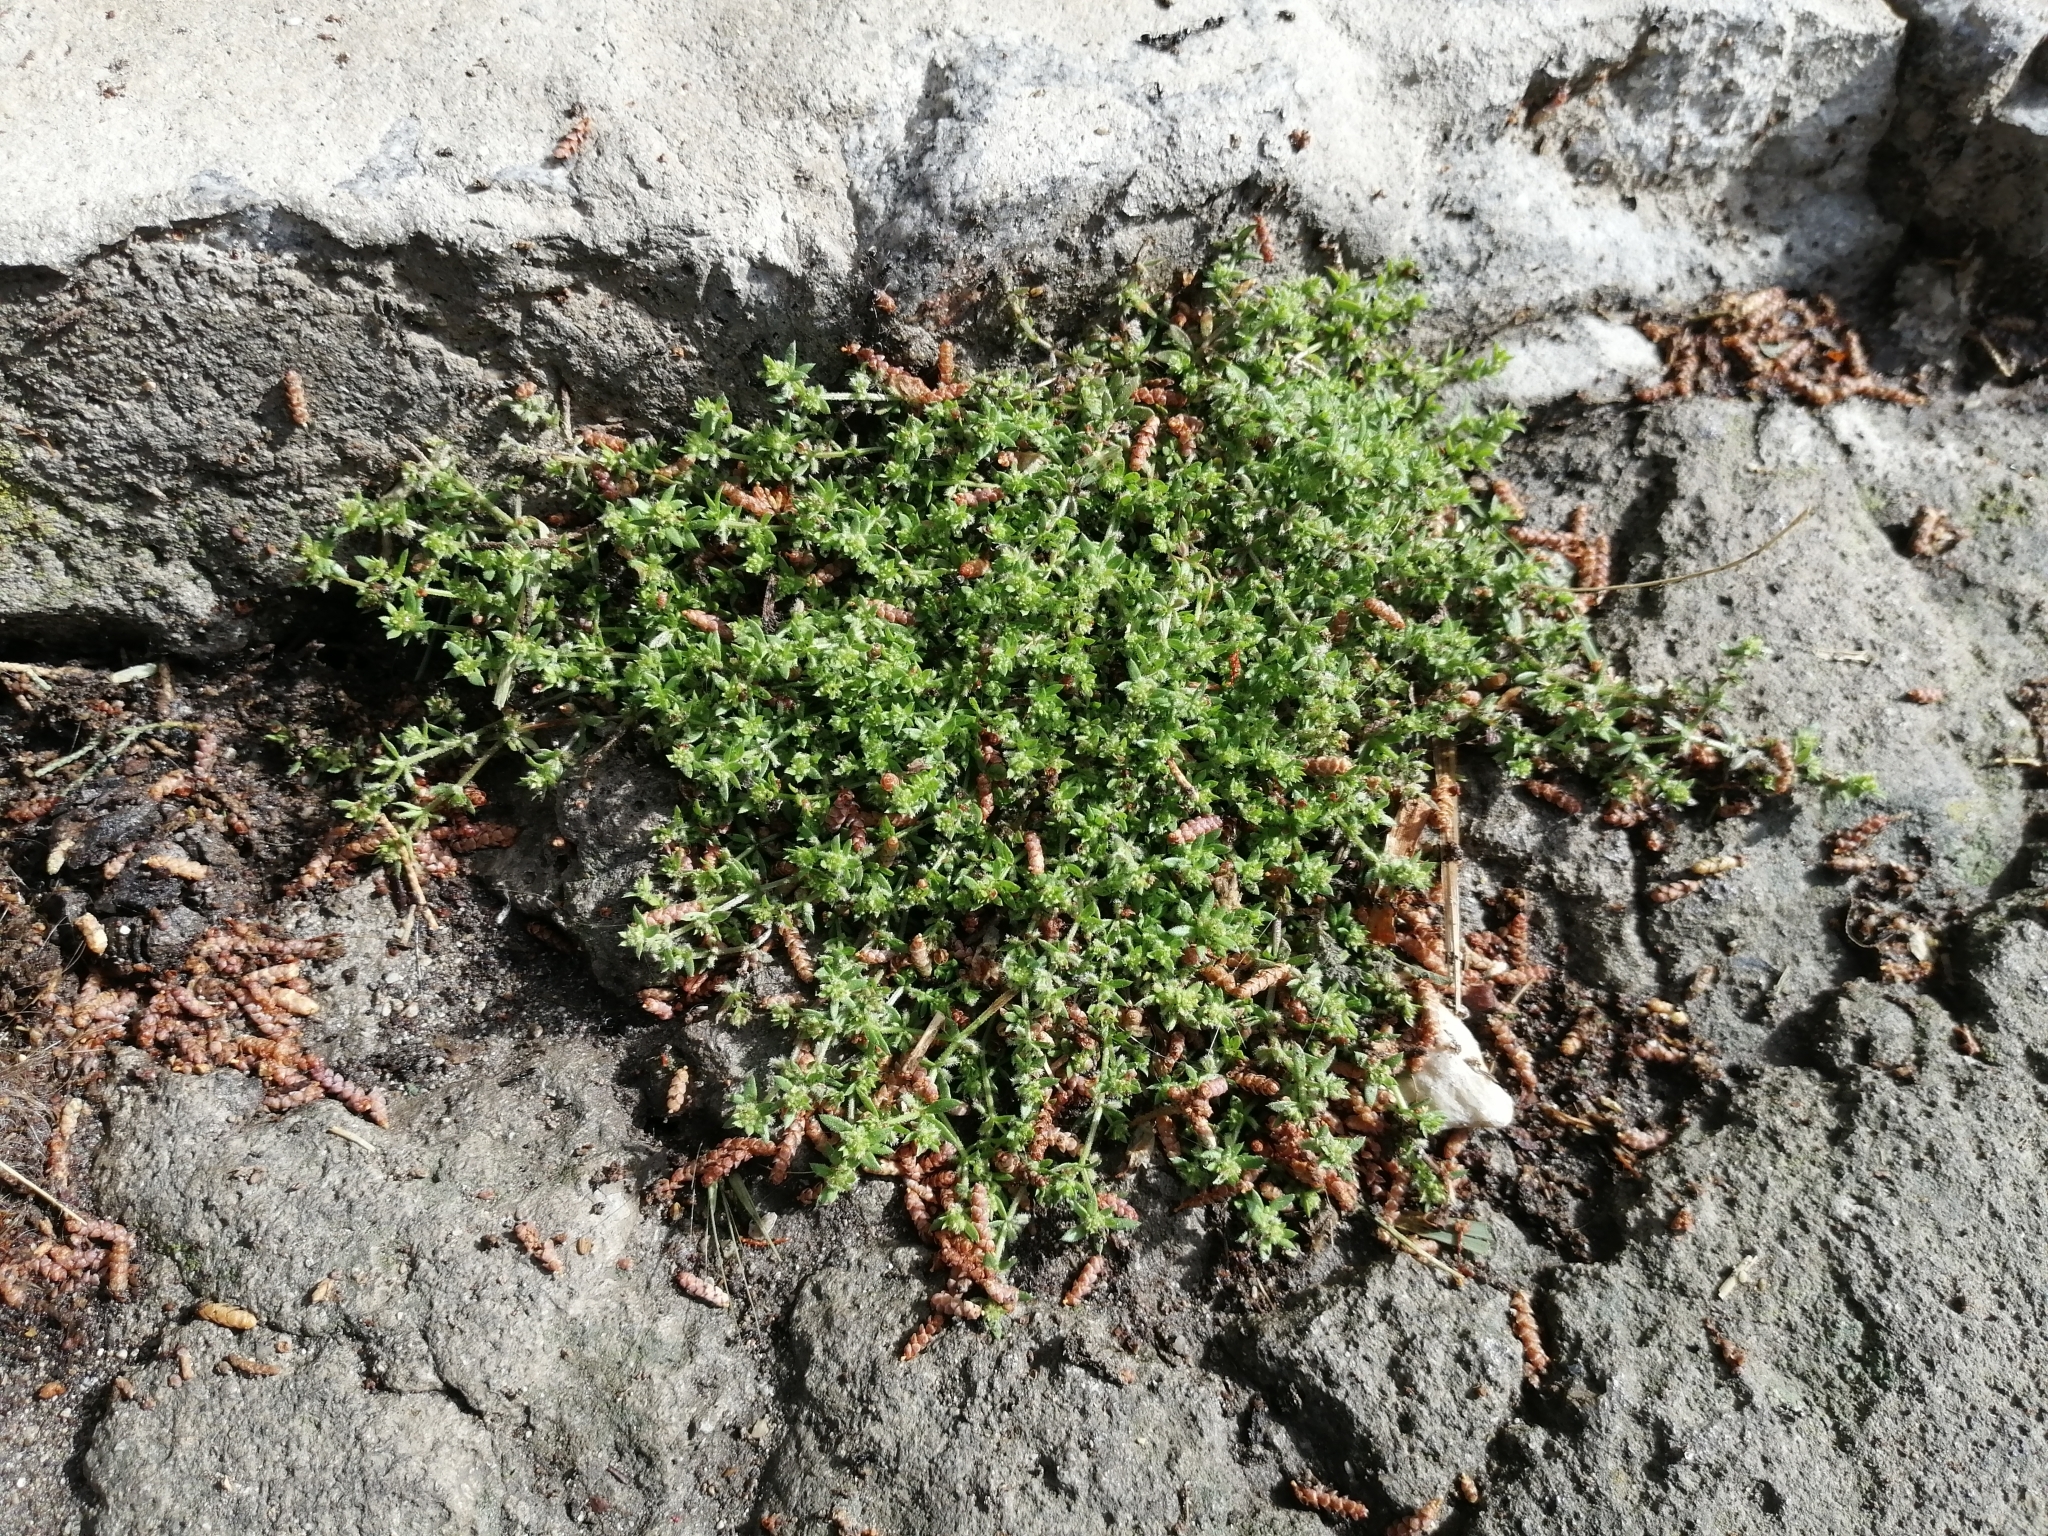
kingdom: Plantae
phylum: Tracheophyta
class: Magnoliopsida
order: Caryophyllales
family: Caryophyllaceae
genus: Herniaria
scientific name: Herniaria glabra
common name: Smooth rupturewort
